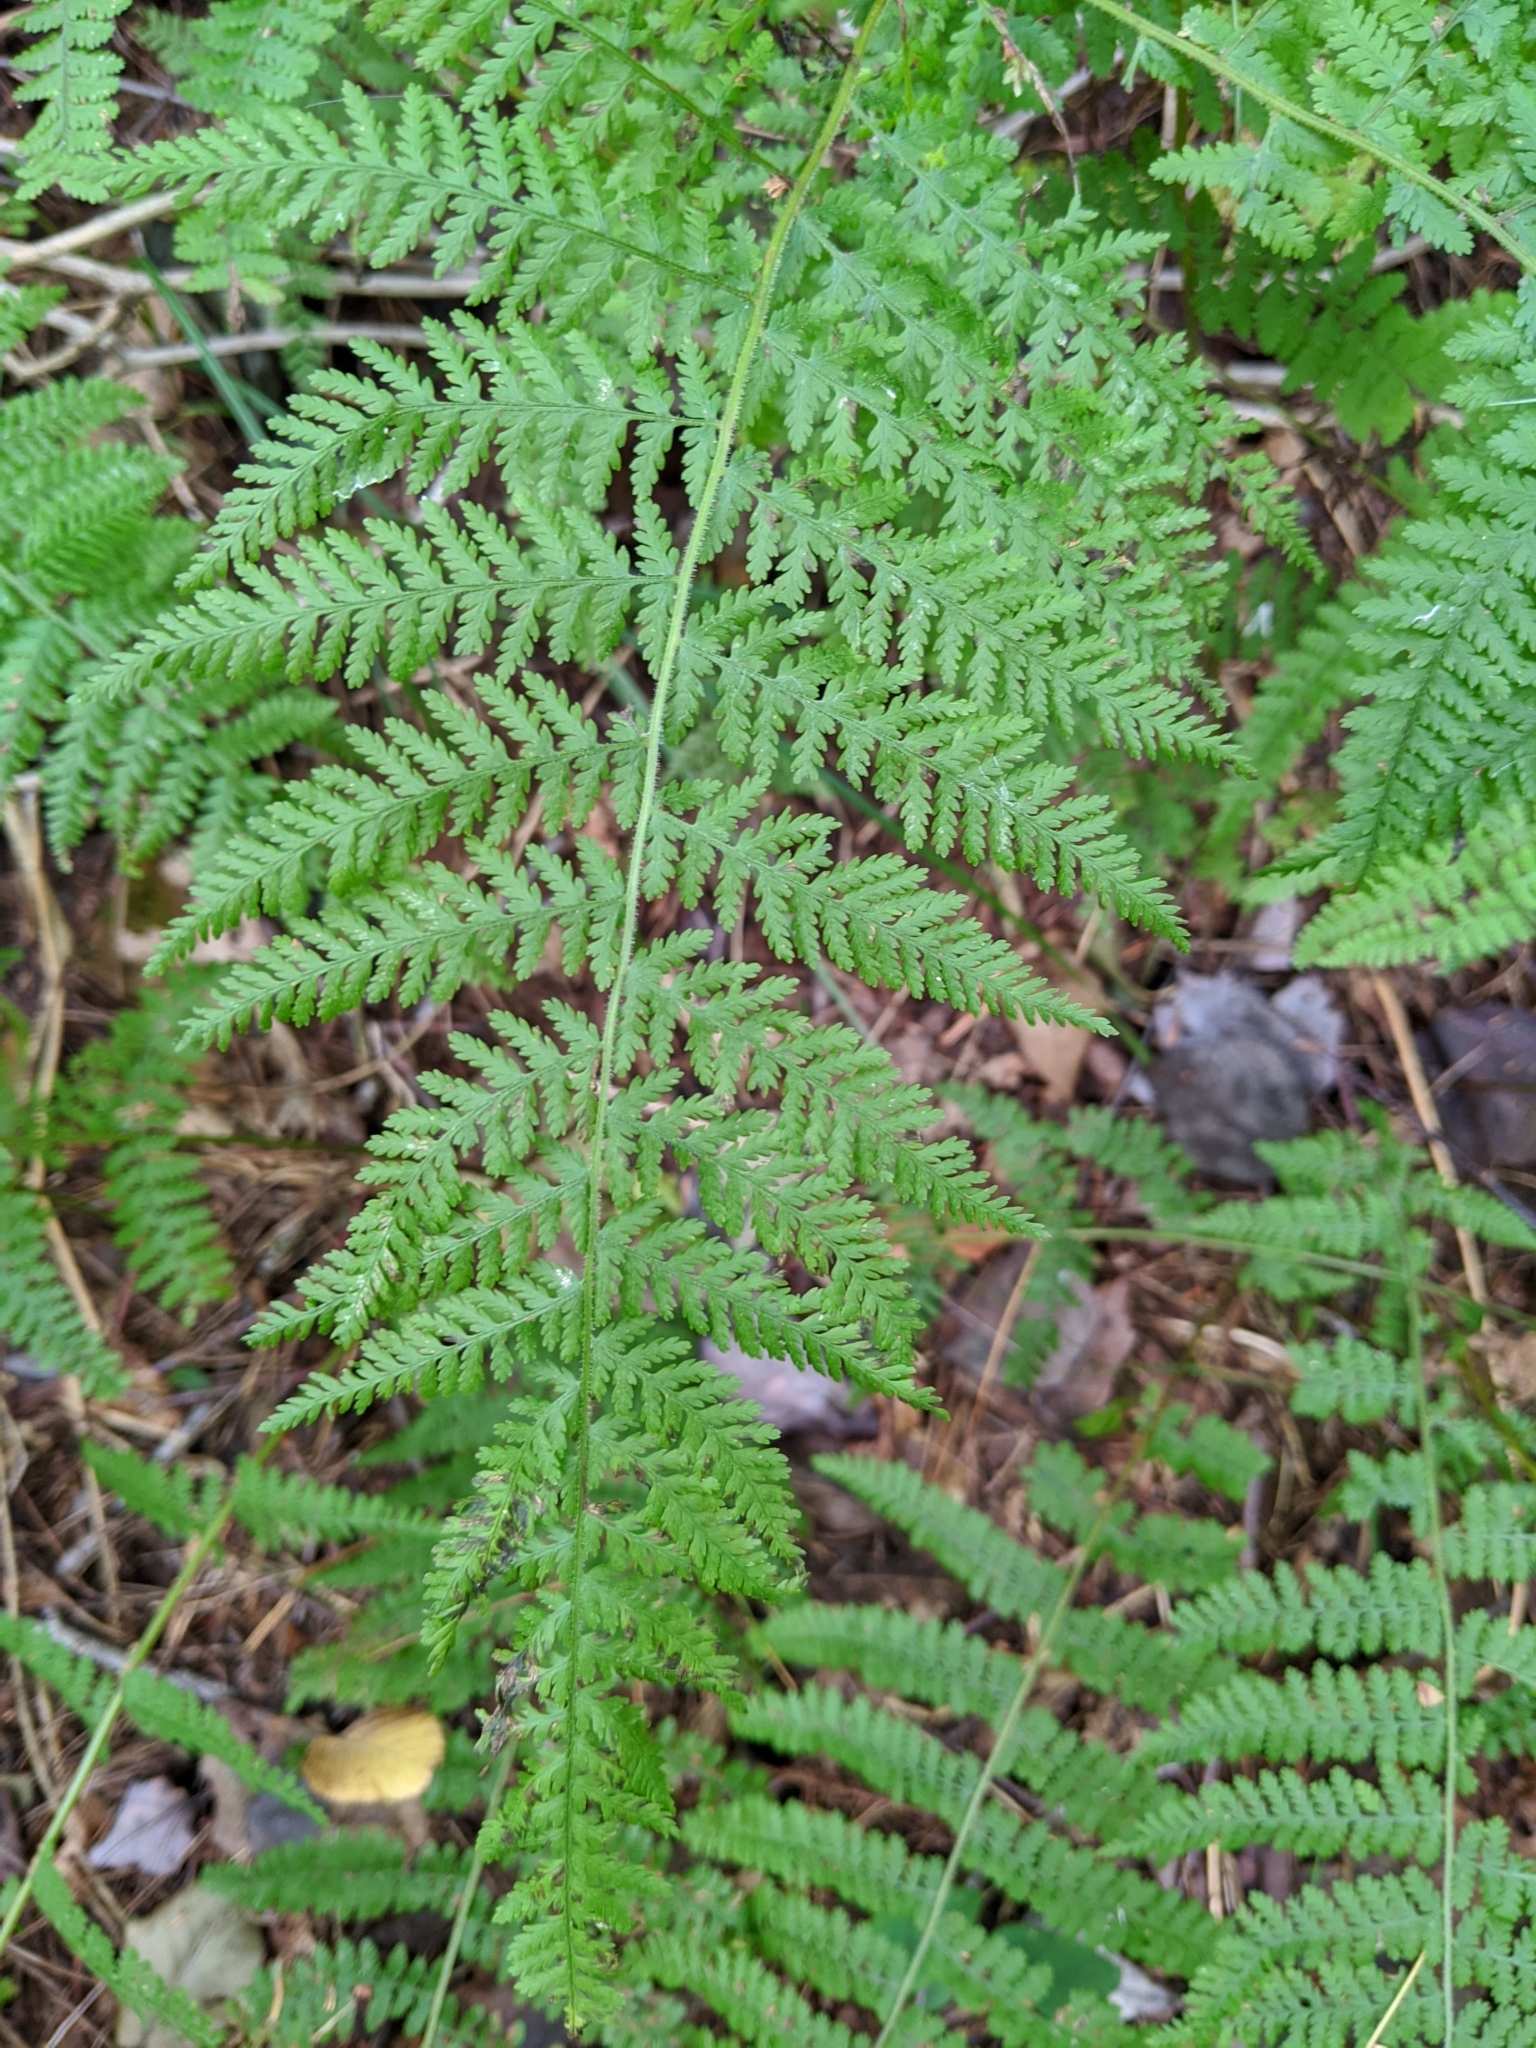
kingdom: Plantae
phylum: Tracheophyta
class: Polypodiopsida
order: Polypodiales
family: Dennstaedtiaceae
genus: Sitobolium
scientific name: Sitobolium punctilobum
